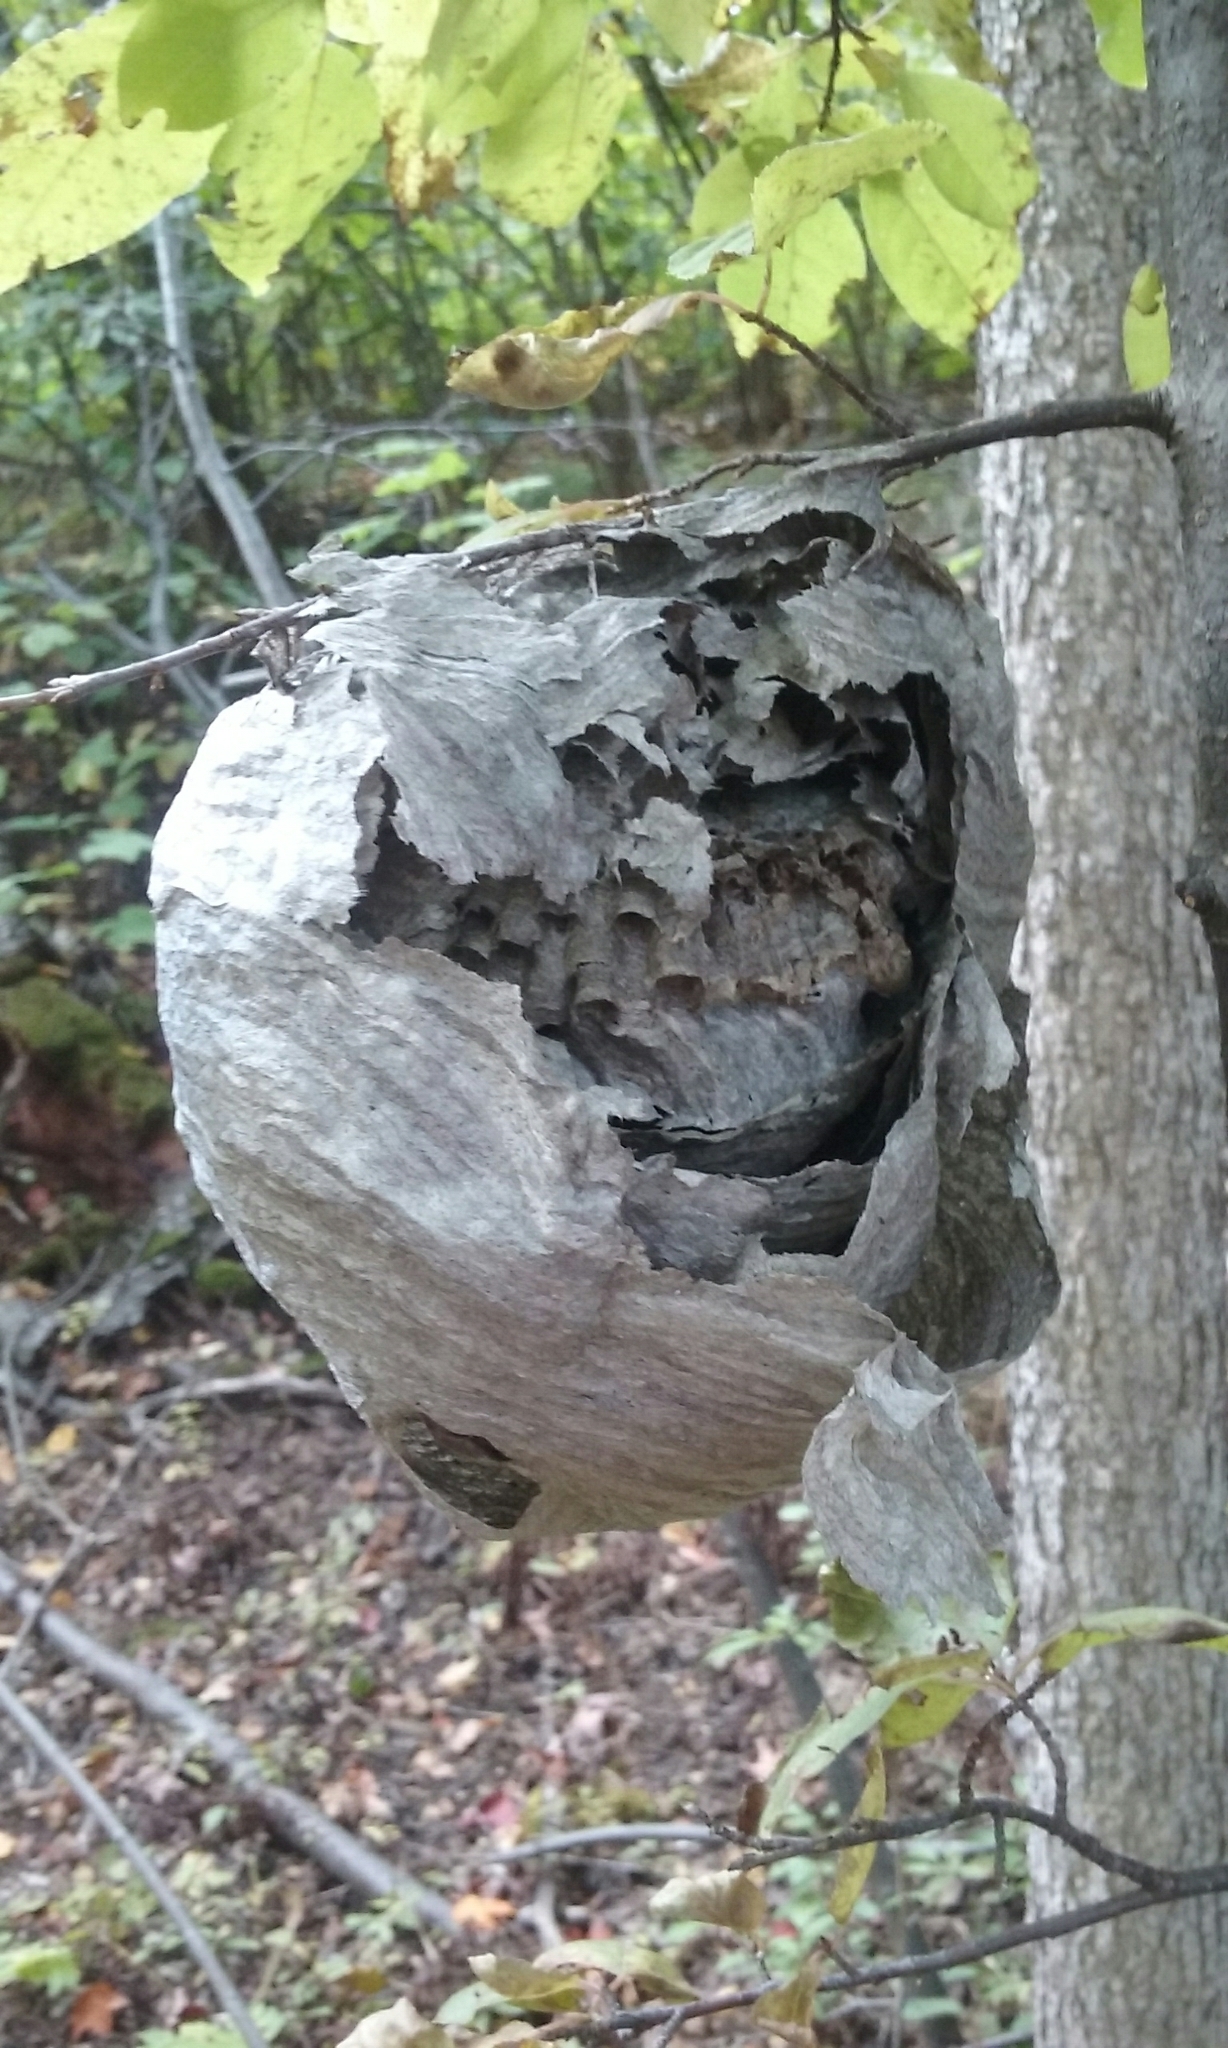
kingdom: Animalia
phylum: Arthropoda
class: Insecta
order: Hymenoptera
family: Vespidae
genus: Dolichovespula
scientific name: Dolichovespula
